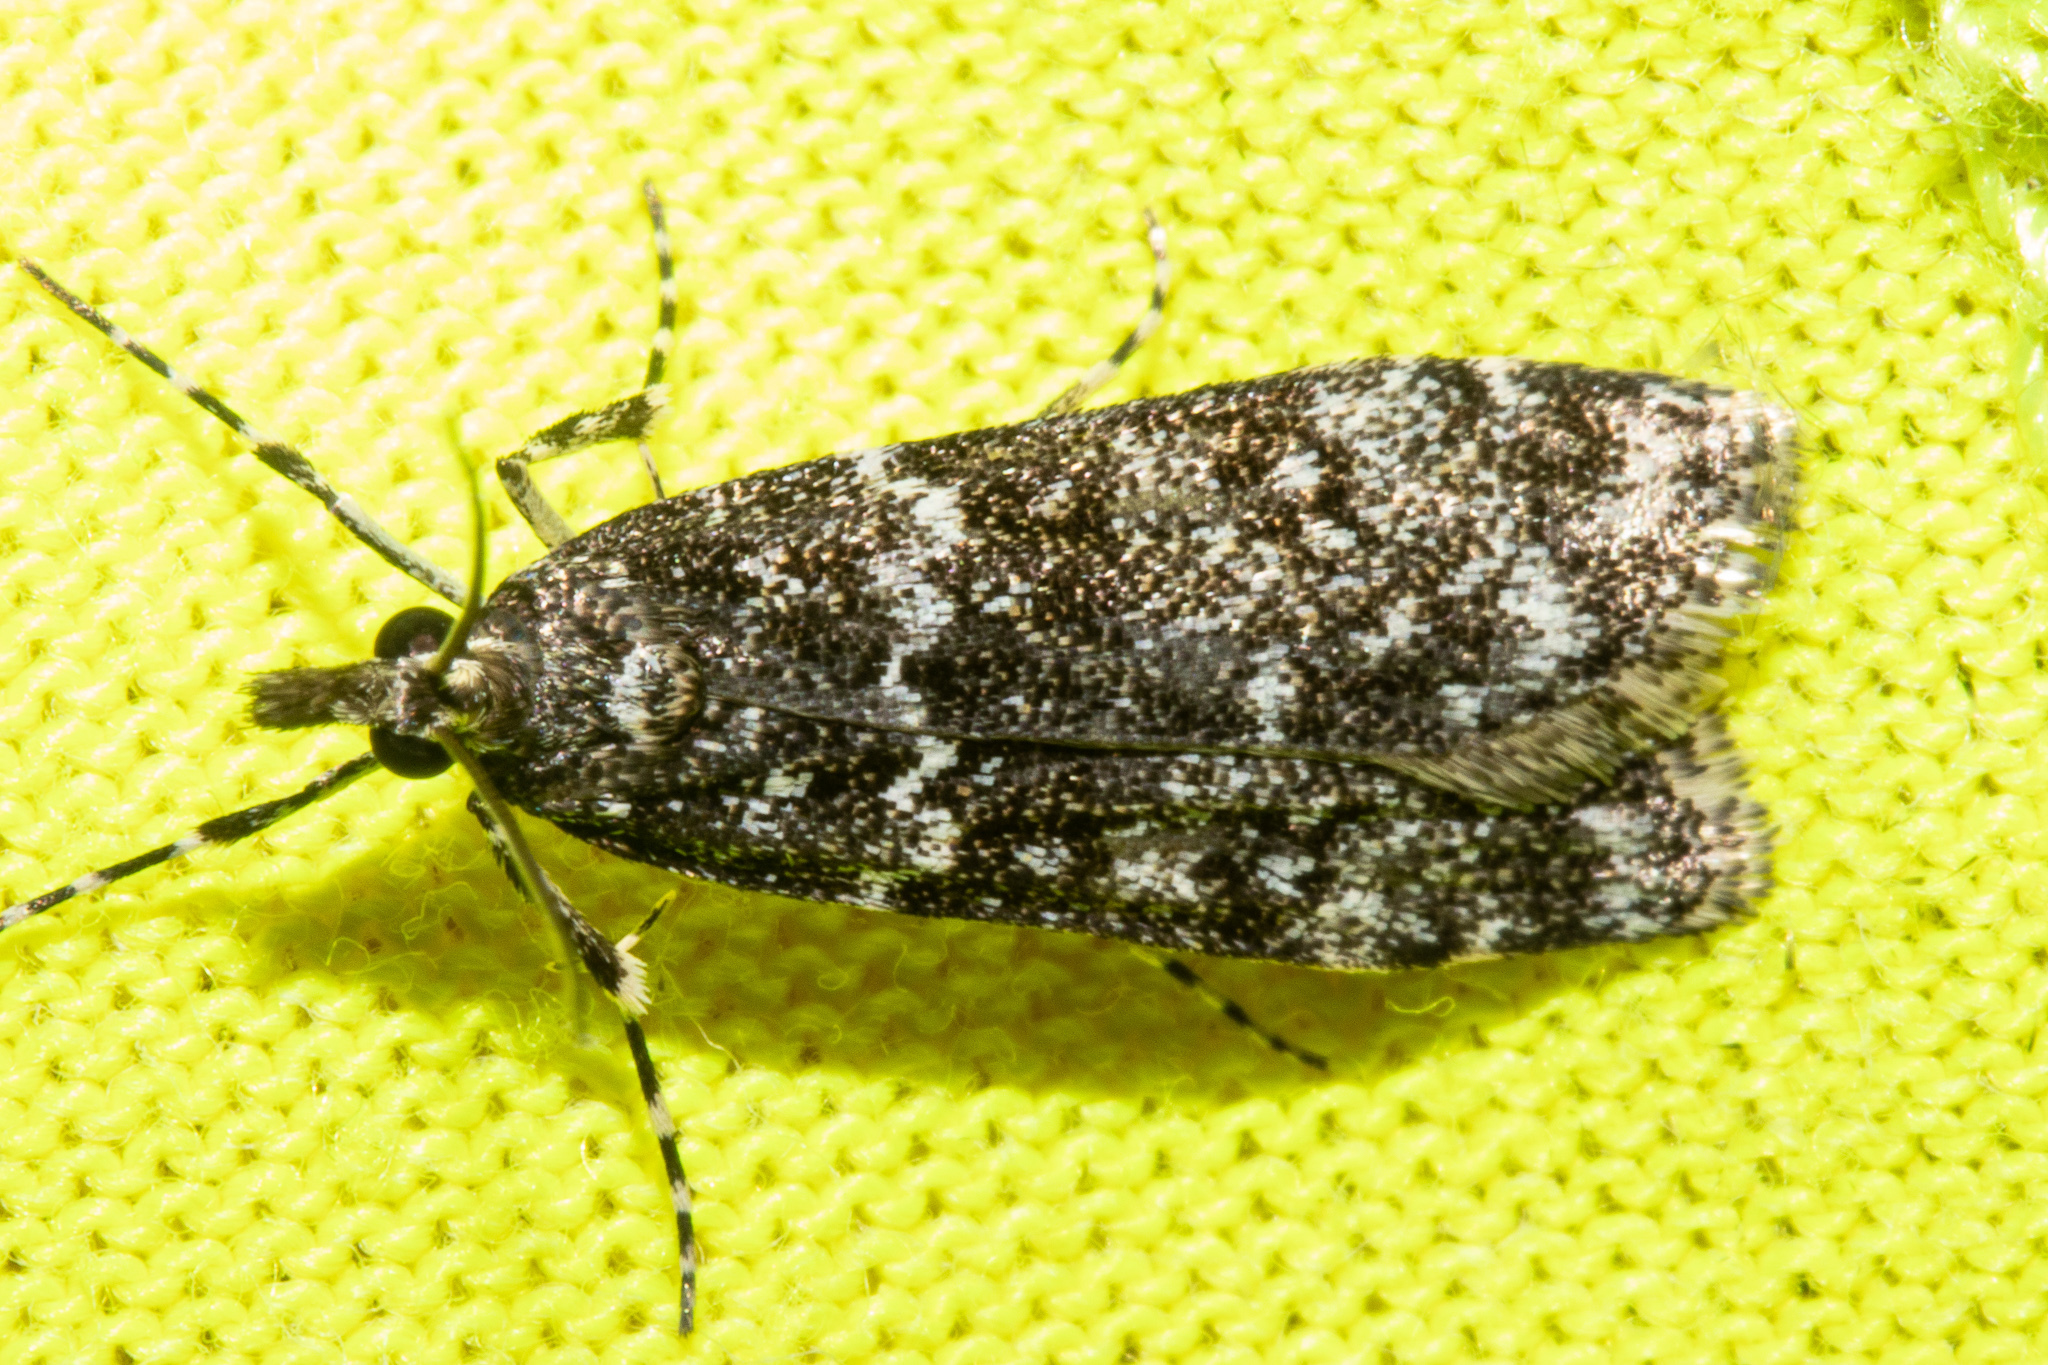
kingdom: Animalia
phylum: Arthropoda
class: Insecta
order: Lepidoptera
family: Crambidae
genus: Eudonia
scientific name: Eudonia philerga
